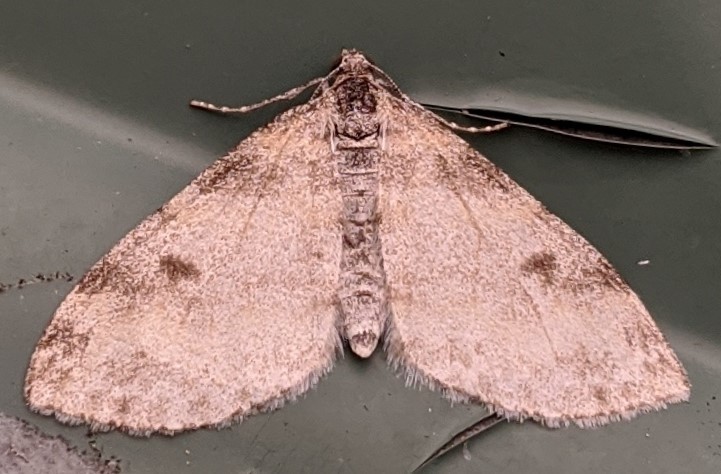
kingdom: Animalia
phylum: Arthropoda
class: Insecta
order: Lepidoptera
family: Geometridae
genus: Lobophora
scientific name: Lobophora nivigerata
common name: Powdered bigwing
